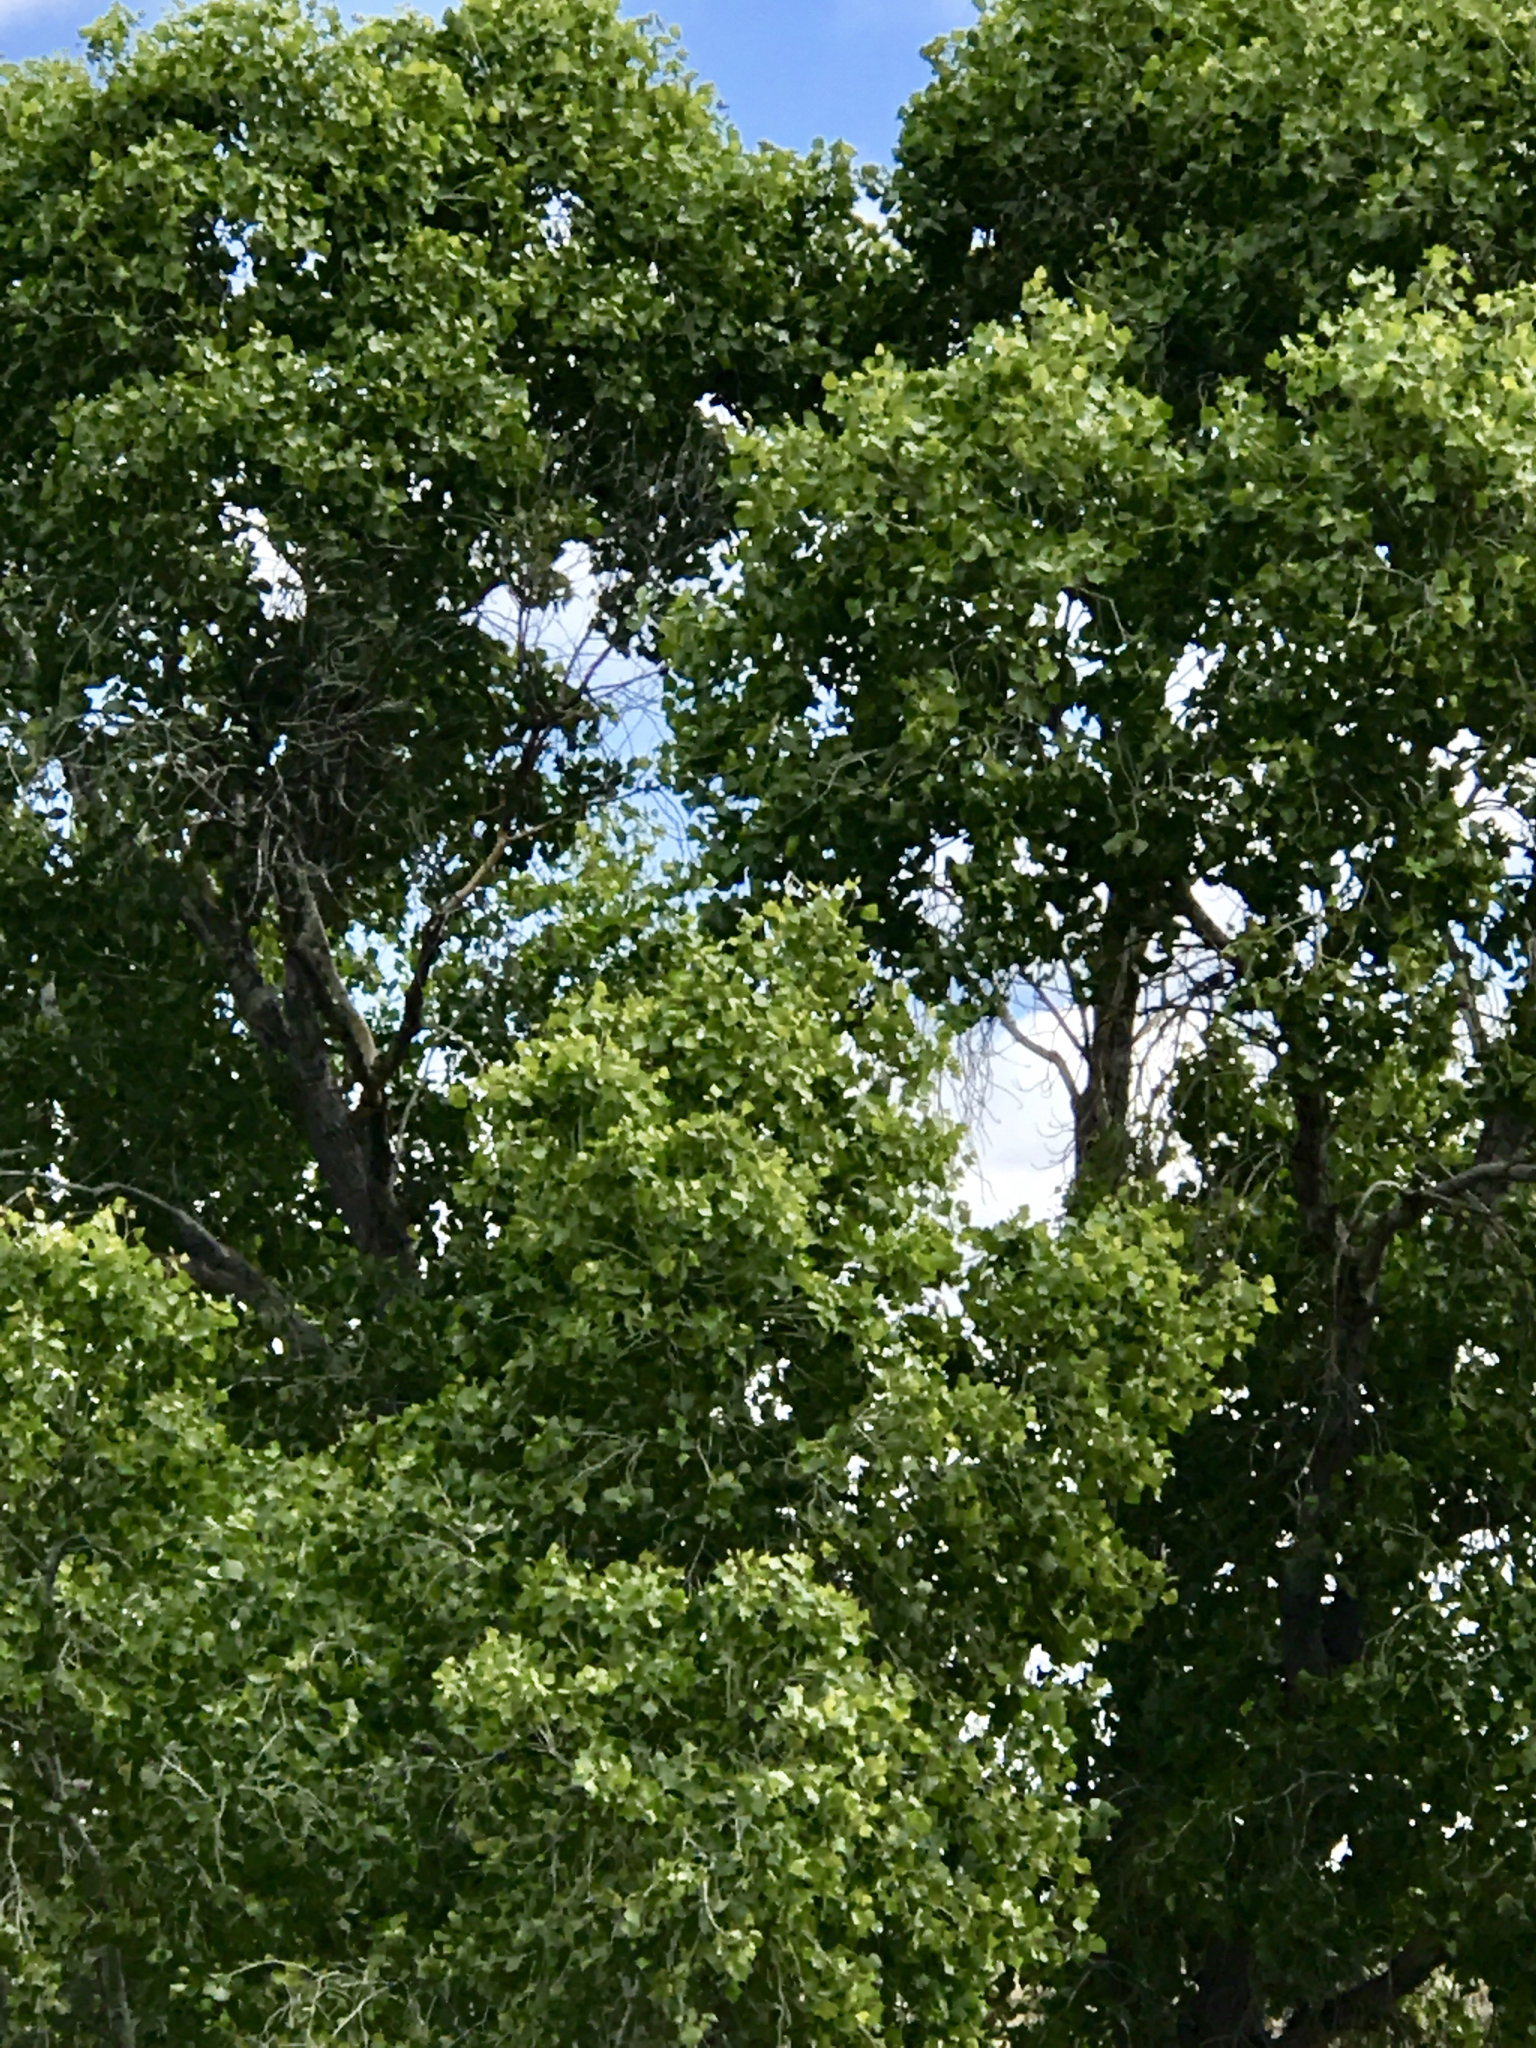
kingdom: Plantae
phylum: Tracheophyta
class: Magnoliopsida
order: Malpighiales
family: Salicaceae
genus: Populus
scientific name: Populus fremontii
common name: Fremont's cottonwood
